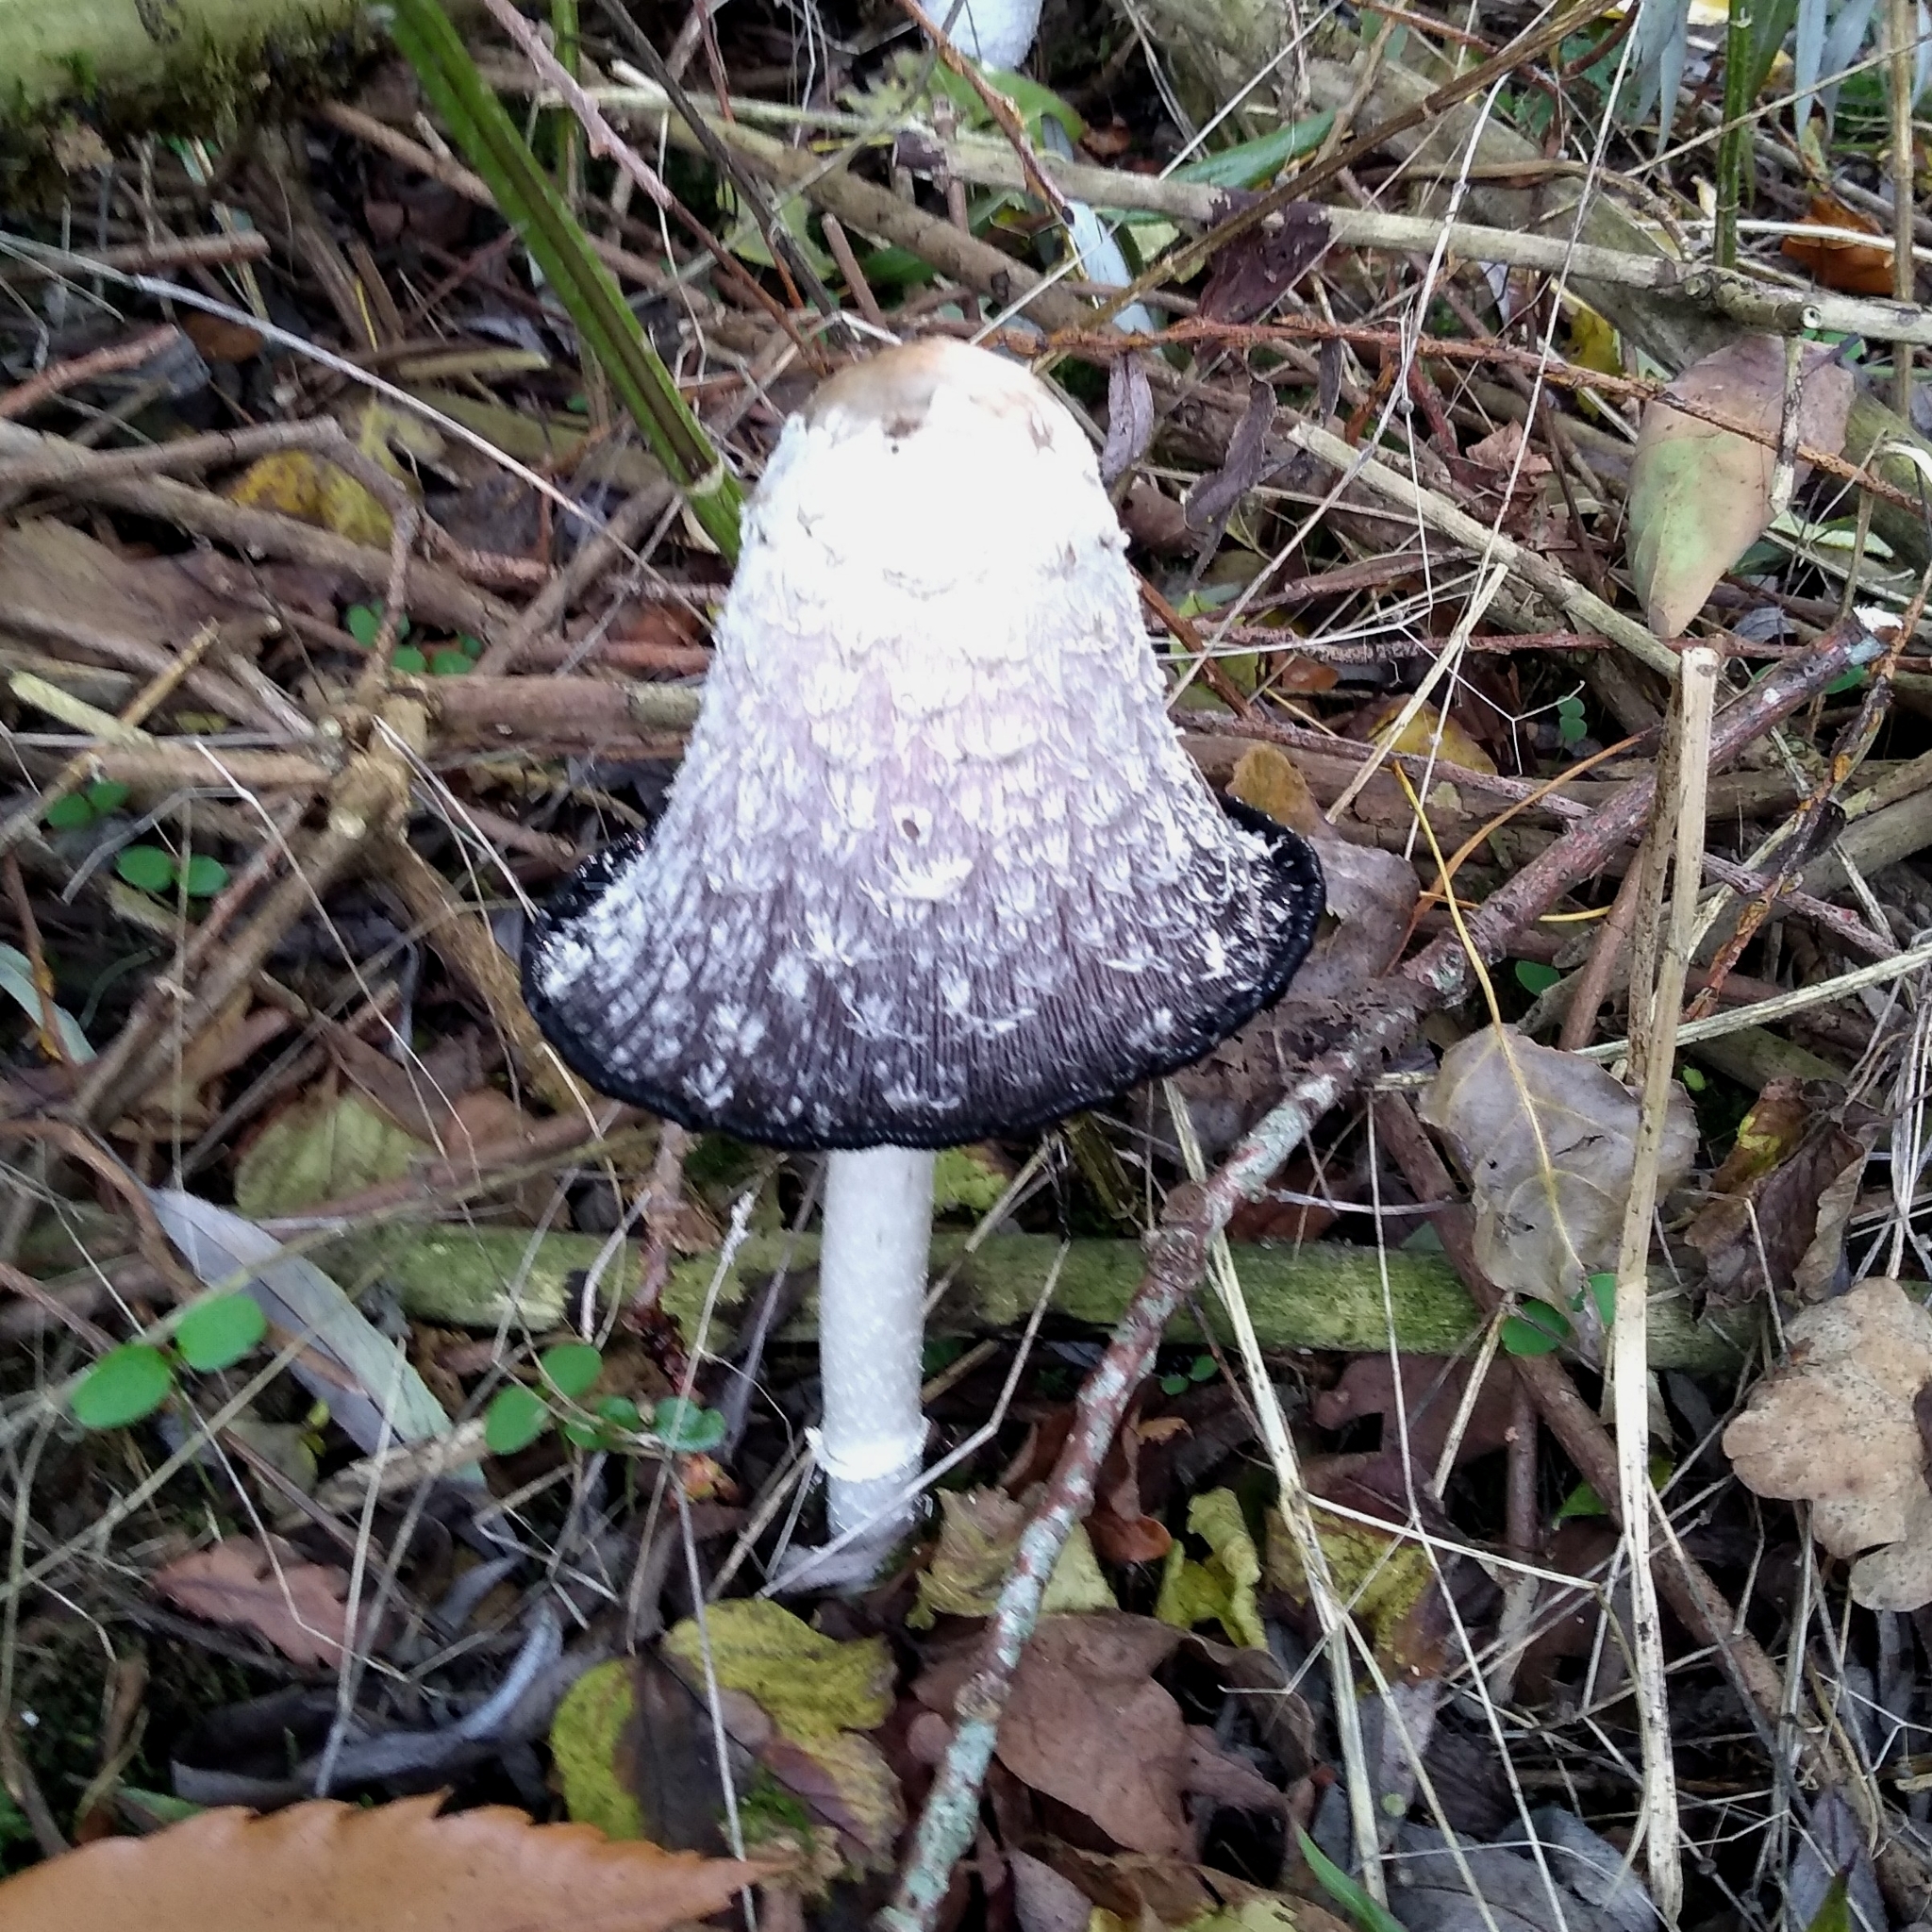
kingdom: Fungi
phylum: Basidiomycota
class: Agaricomycetes
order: Agaricales
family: Agaricaceae
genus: Coprinus
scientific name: Coprinus comatus
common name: Lawyer's wig
